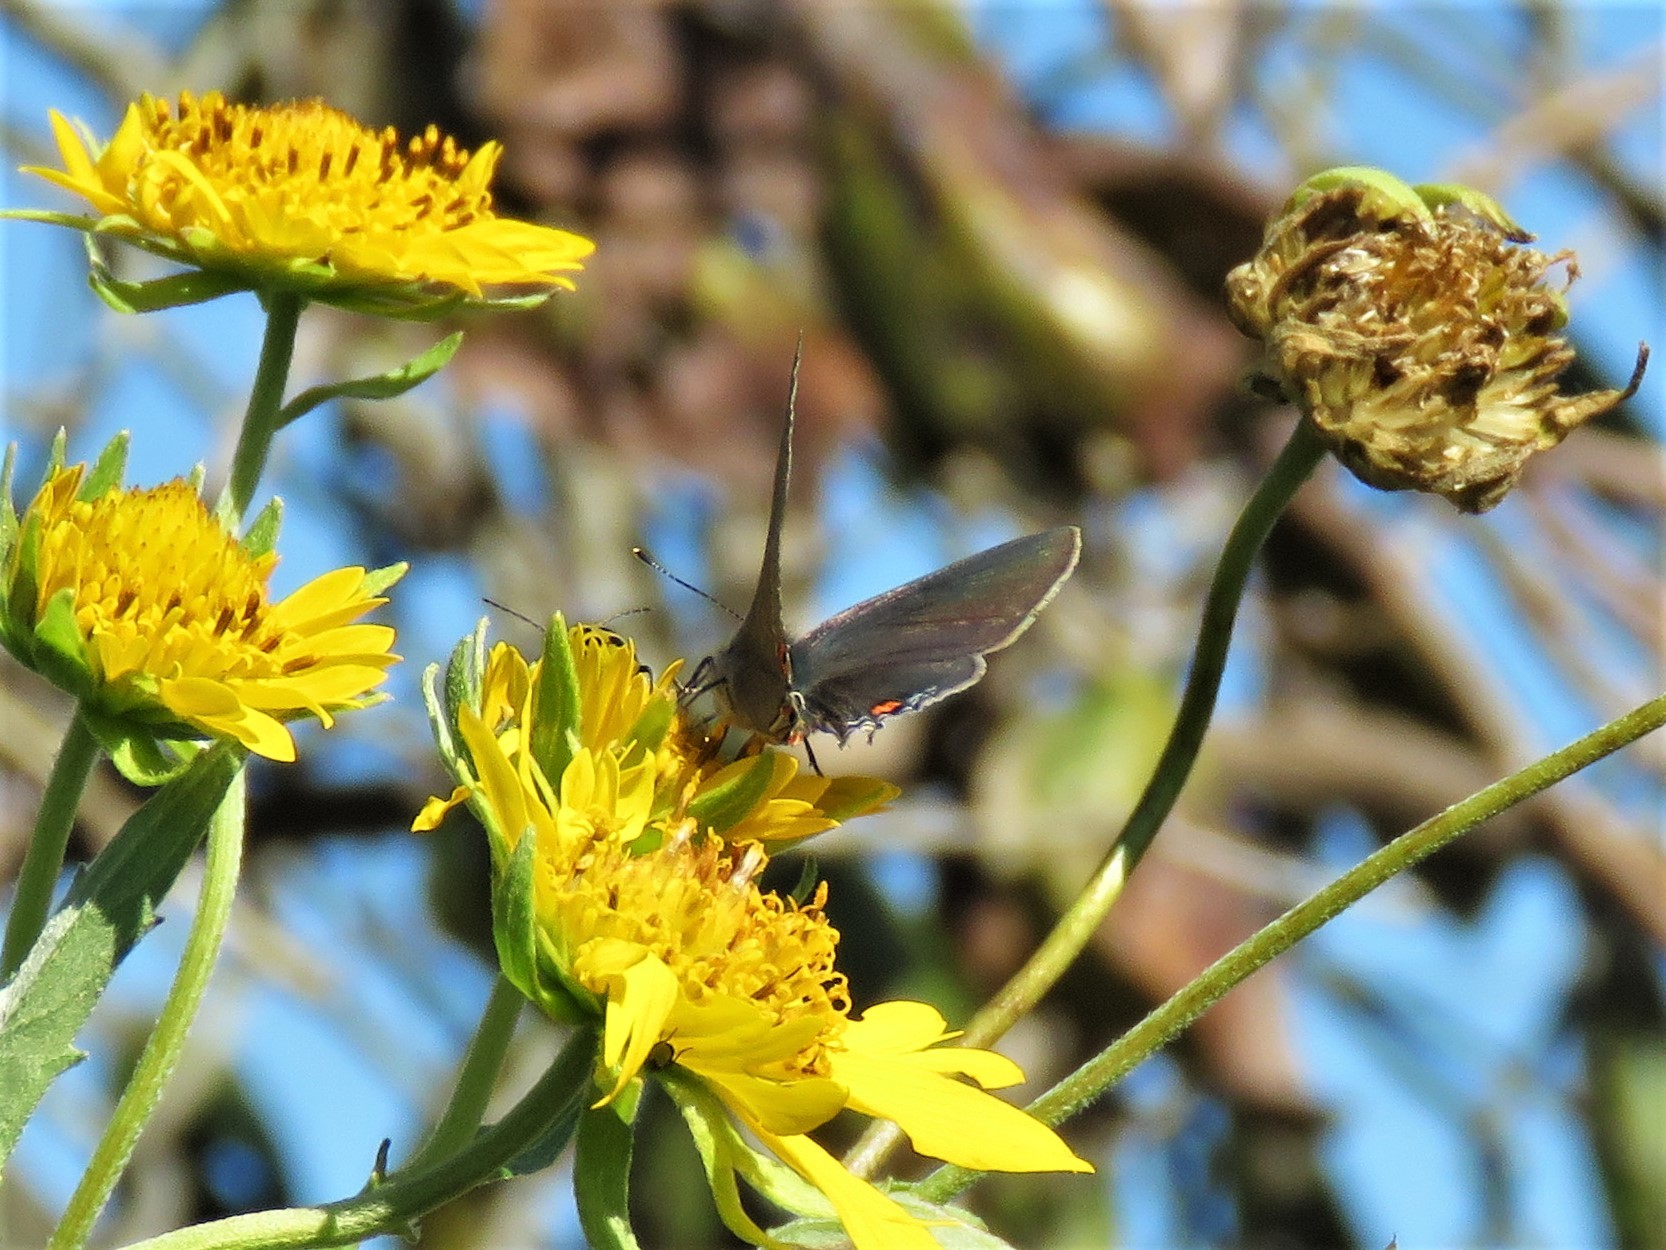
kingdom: Animalia
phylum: Arthropoda
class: Insecta
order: Lepidoptera
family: Lycaenidae
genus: Strymon
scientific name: Strymon melinus
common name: Gray hairstreak
